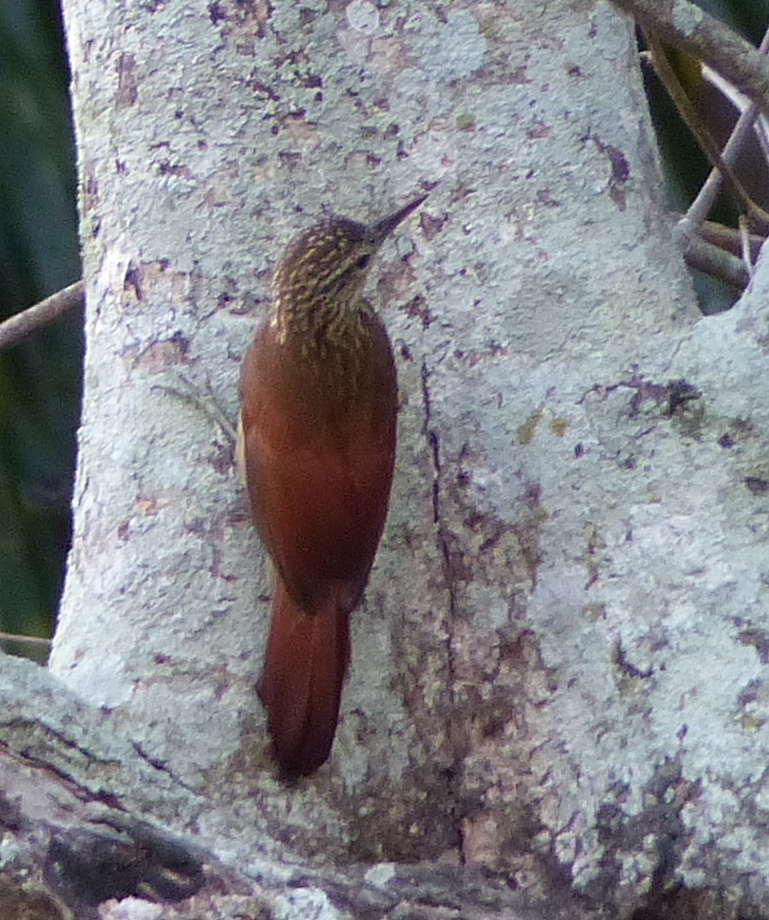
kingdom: Animalia
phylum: Chordata
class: Aves
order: Passeriformes
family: Furnariidae
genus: Xiphorhynchus
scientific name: Xiphorhynchus picus
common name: Straight-billed woodcreeper
